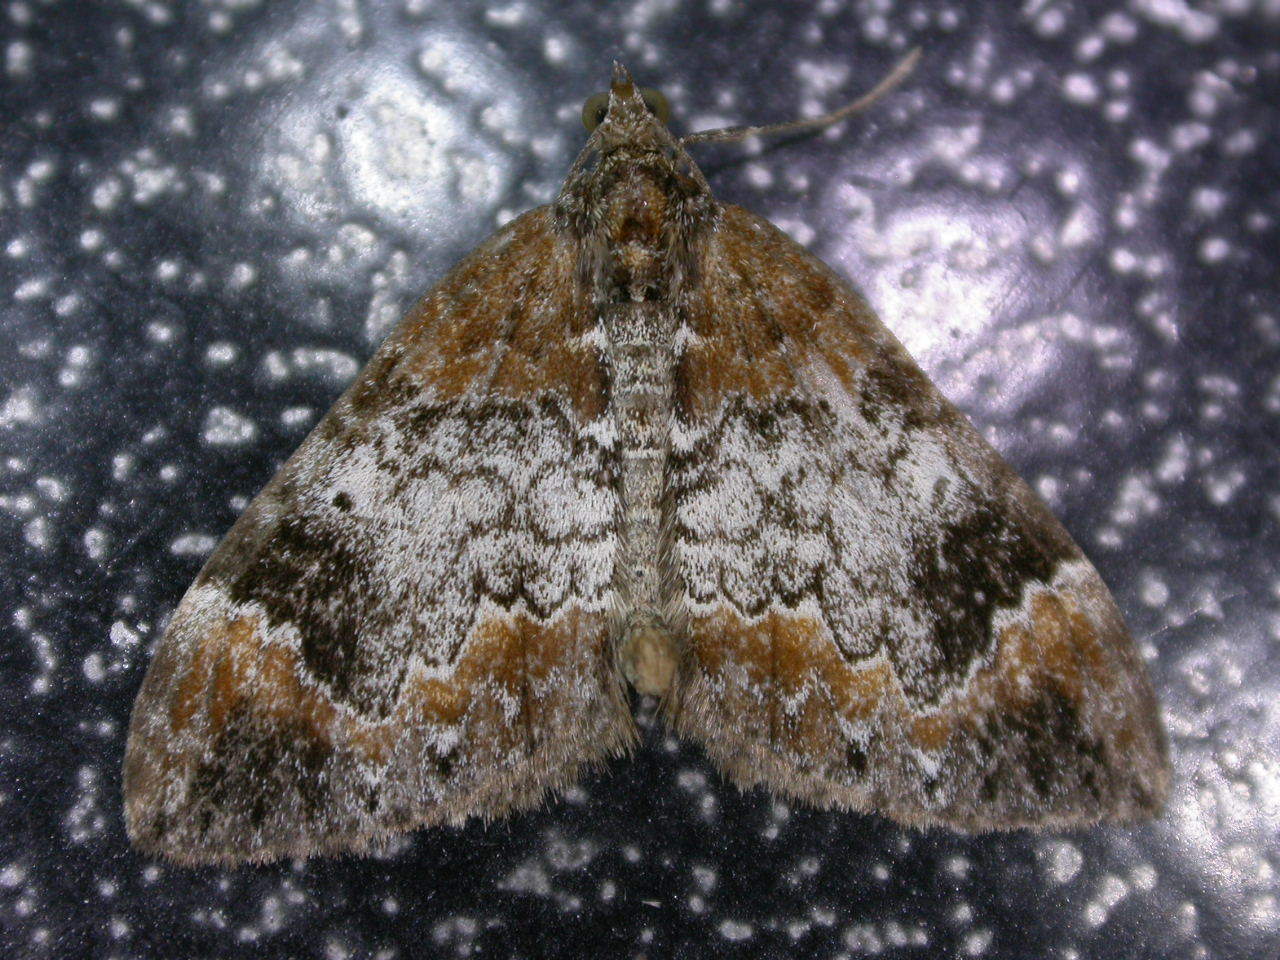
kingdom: Animalia
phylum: Arthropoda
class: Insecta
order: Lepidoptera
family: Geometridae
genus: Dysstroma
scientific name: Dysstroma truncata
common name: Common marbled carpet
